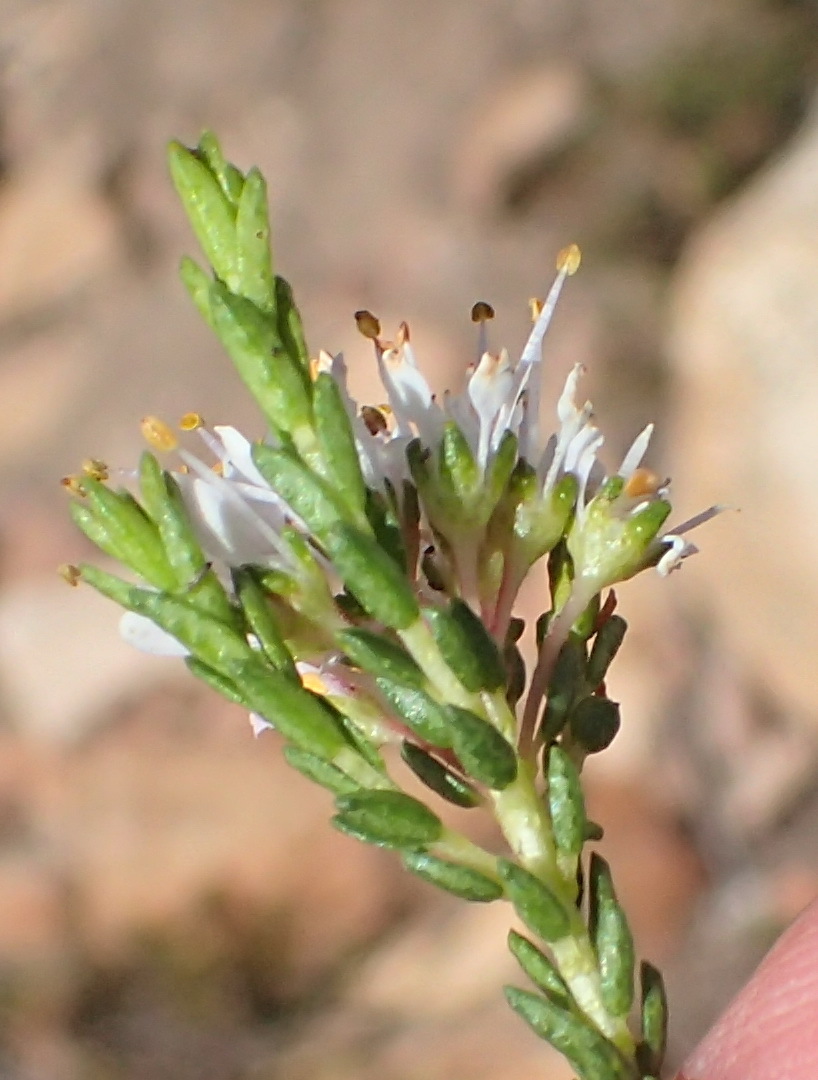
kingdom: Plantae
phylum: Tracheophyta
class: Magnoliopsida
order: Sapindales
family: Rutaceae
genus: Agathosma
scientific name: Agathosma capensis
